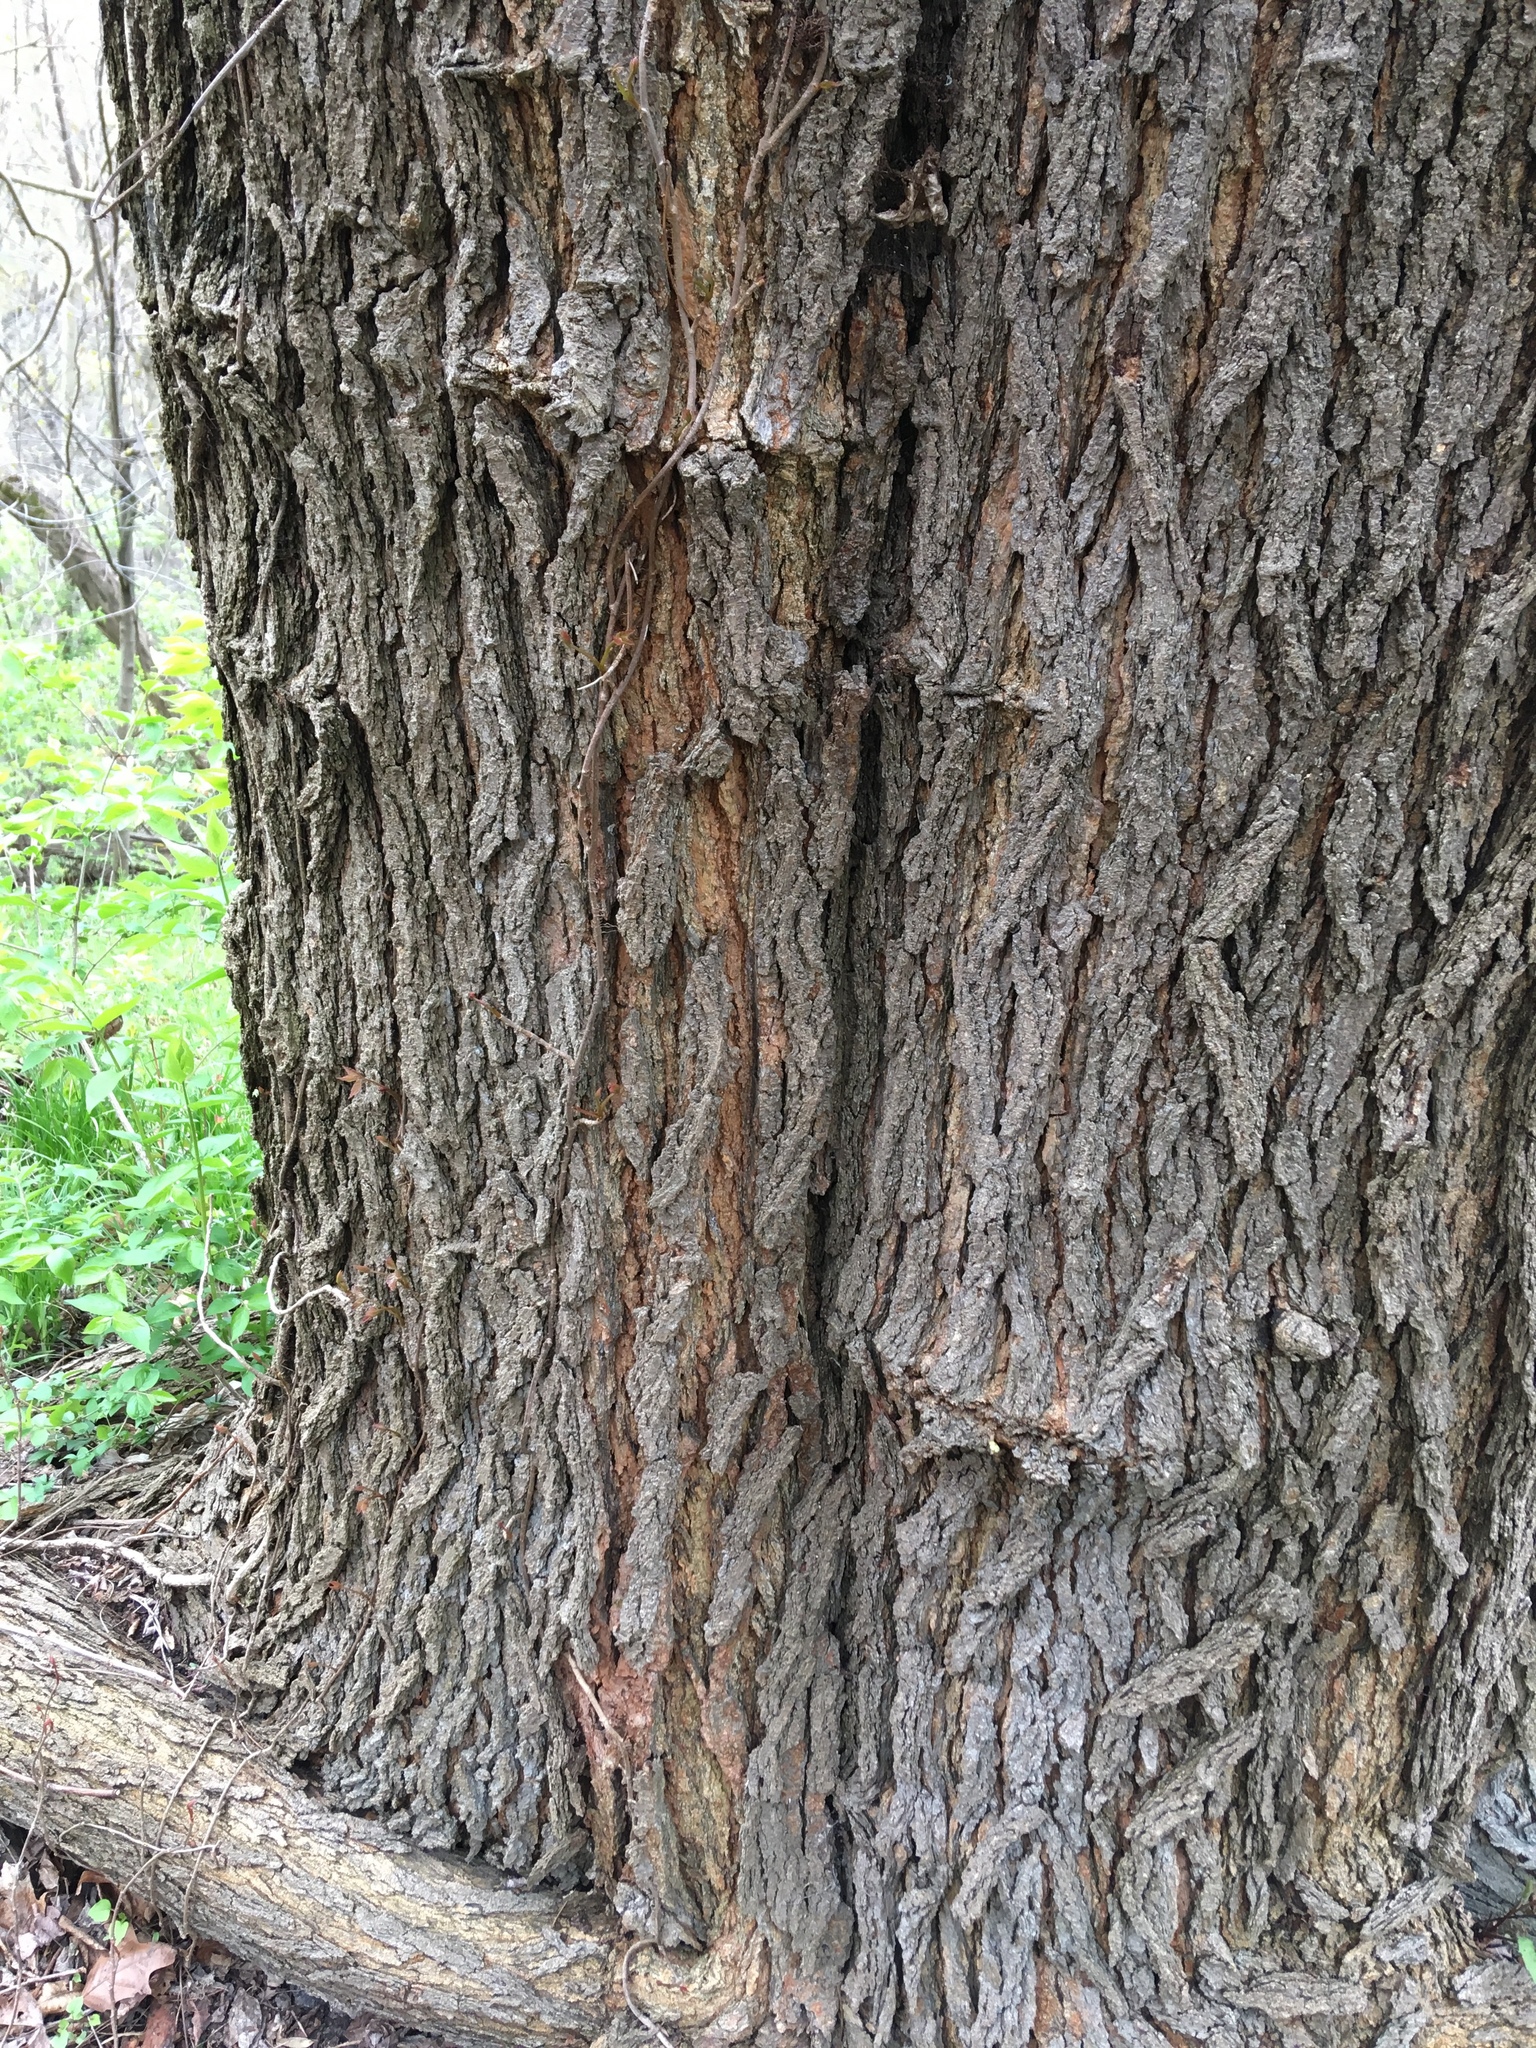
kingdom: Plantae
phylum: Tracheophyta
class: Magnoliopsida
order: Rosales
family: Moraceae
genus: Morus
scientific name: Morus alba
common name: White mulberry
